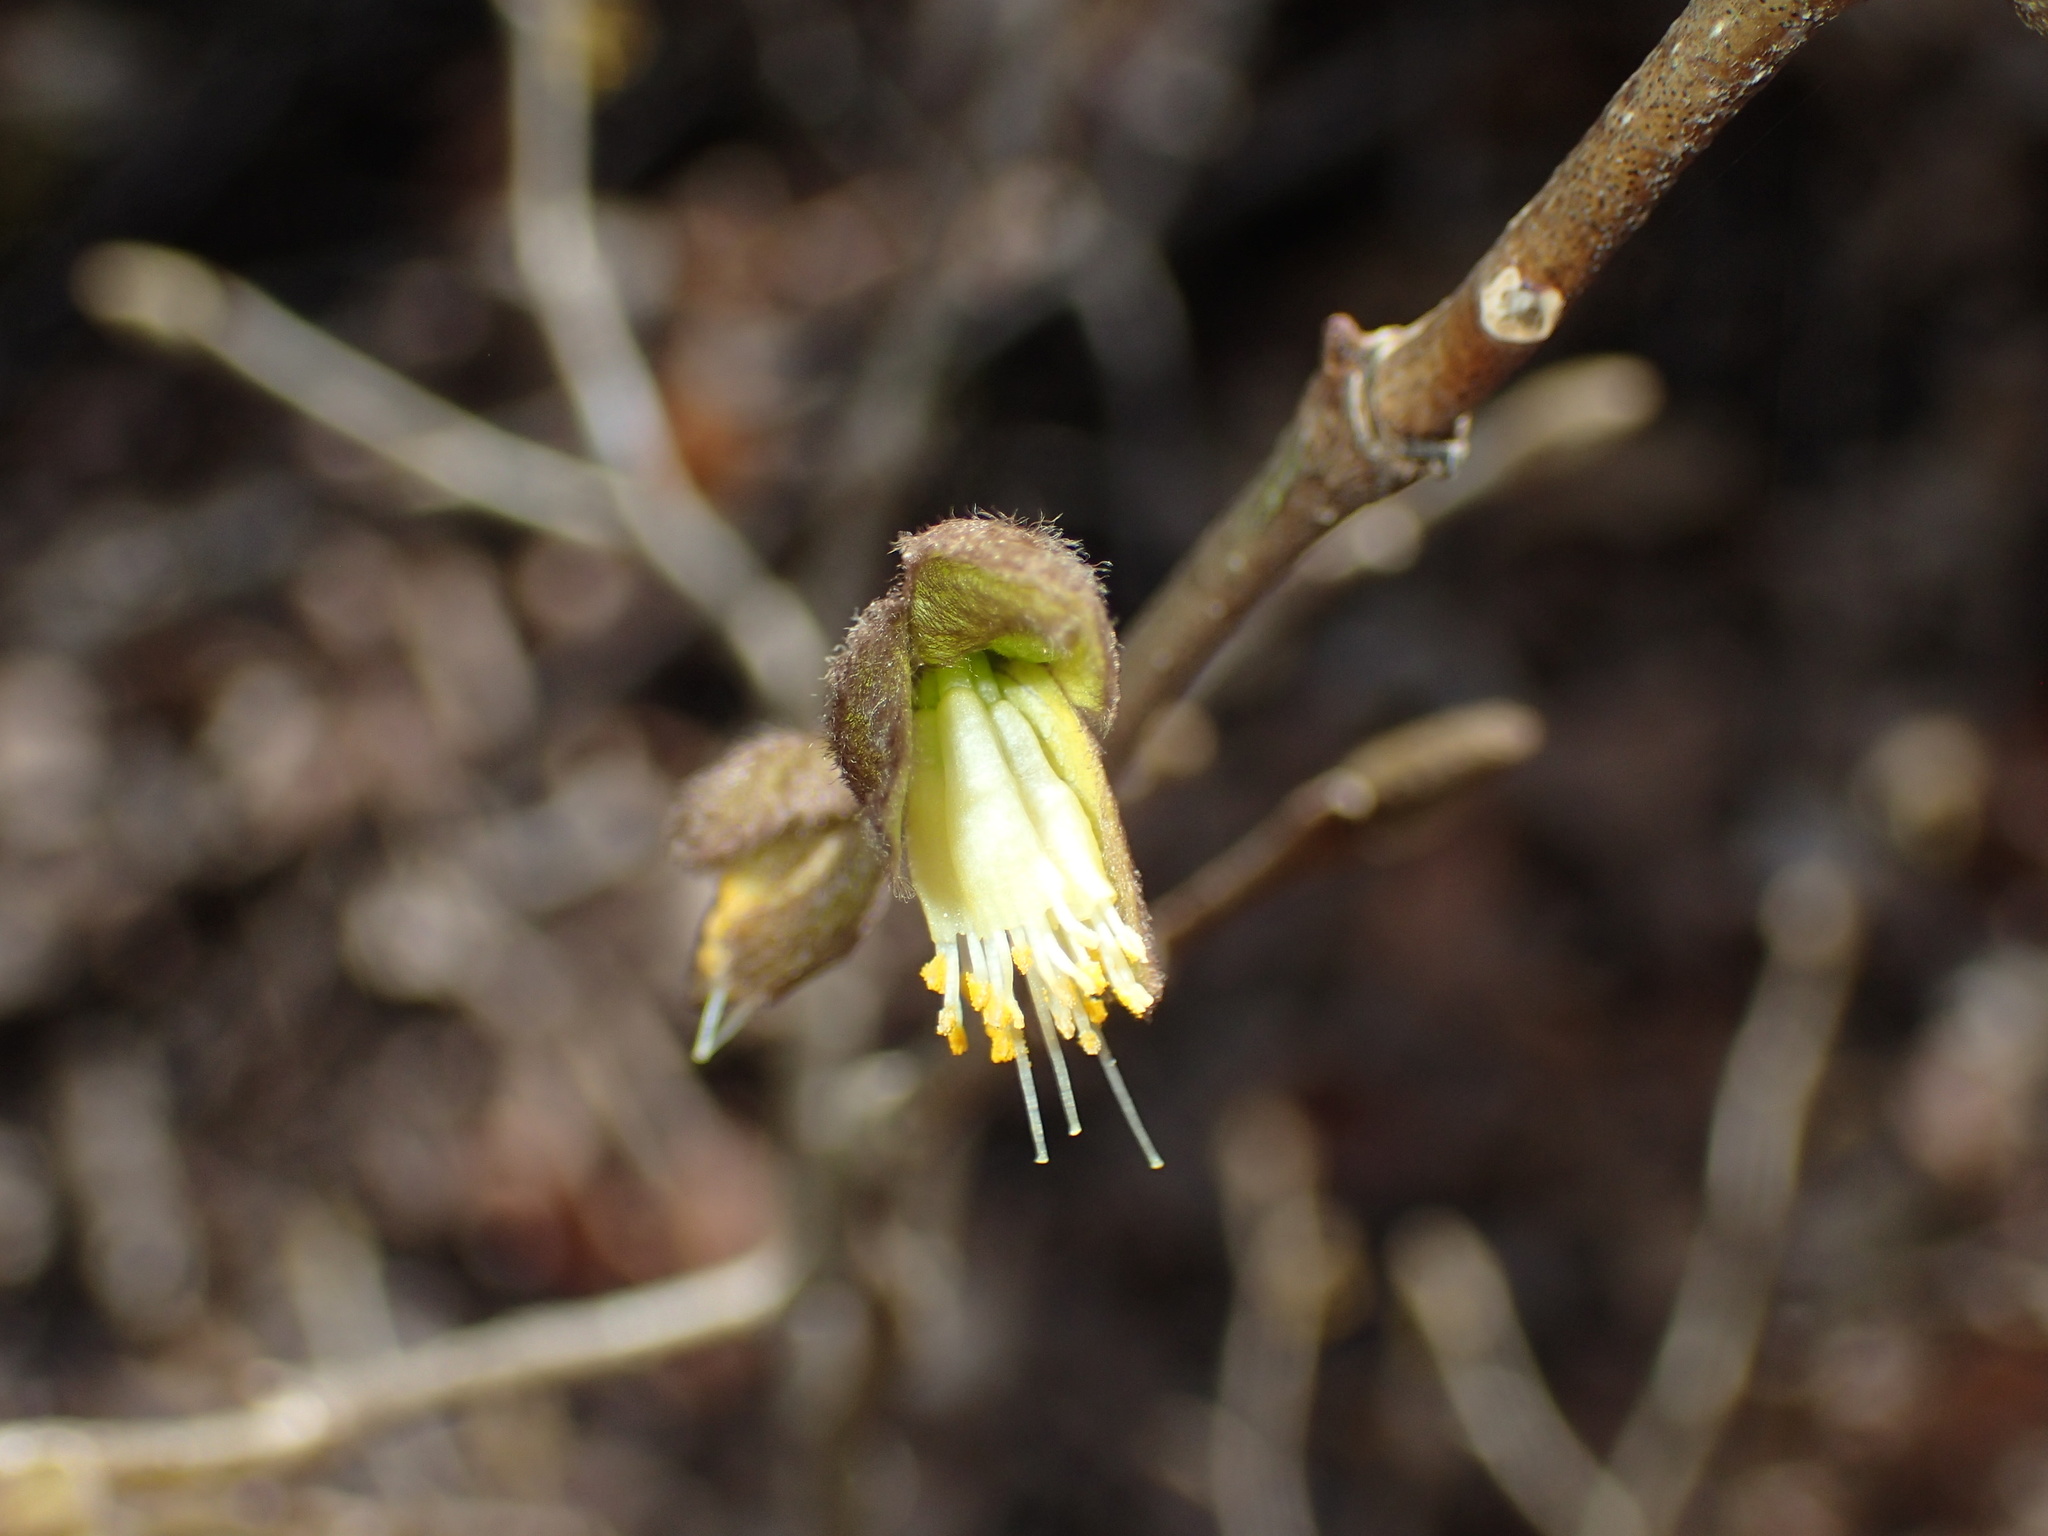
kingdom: Plantae
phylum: Tracheophyta
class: Magnoliopsida
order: Malvales
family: Thymelaeaceae
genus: Dirca
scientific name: Dirca palustris
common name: Leatherwood
